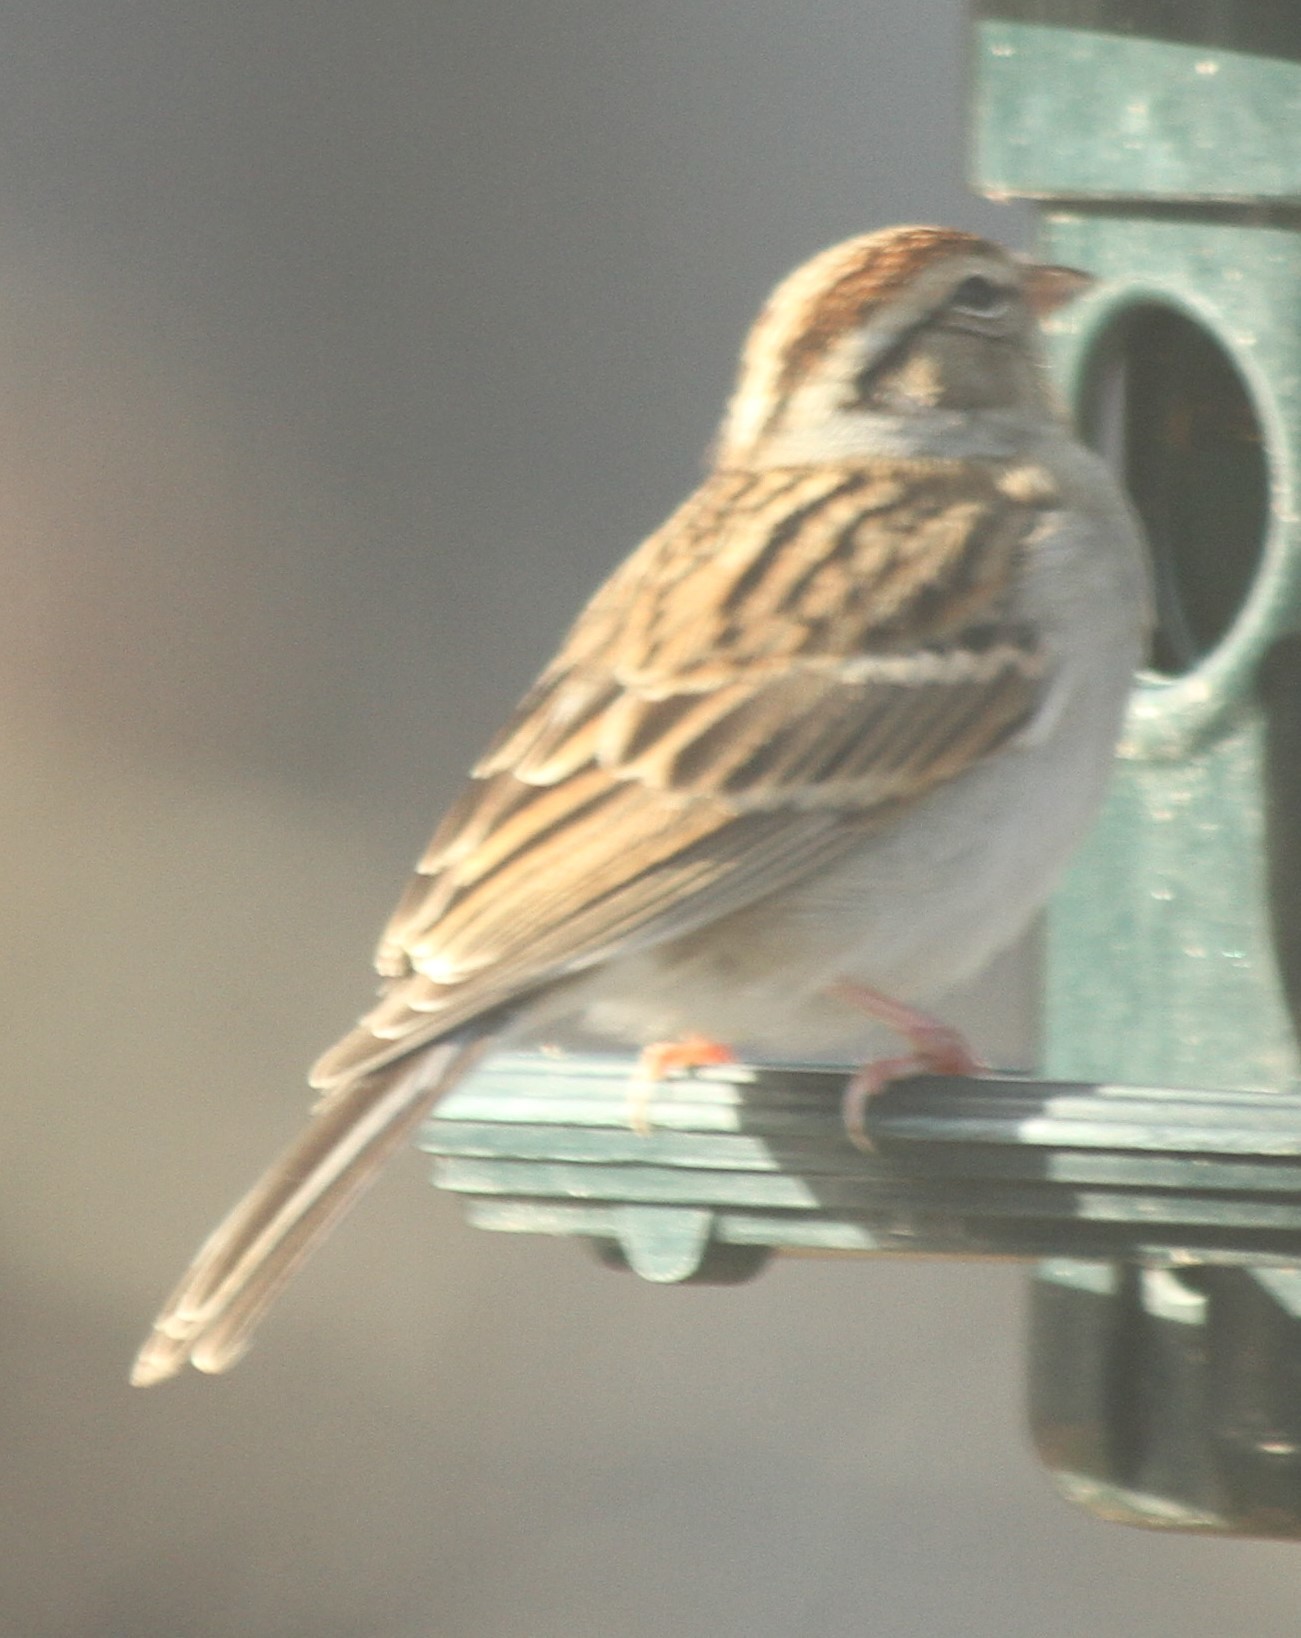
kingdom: Animalia
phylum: Chordata
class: Aves
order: Passeriformes
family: Passerellidae
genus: Spizella
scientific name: Spizella passerina
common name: Chipping sparrow
